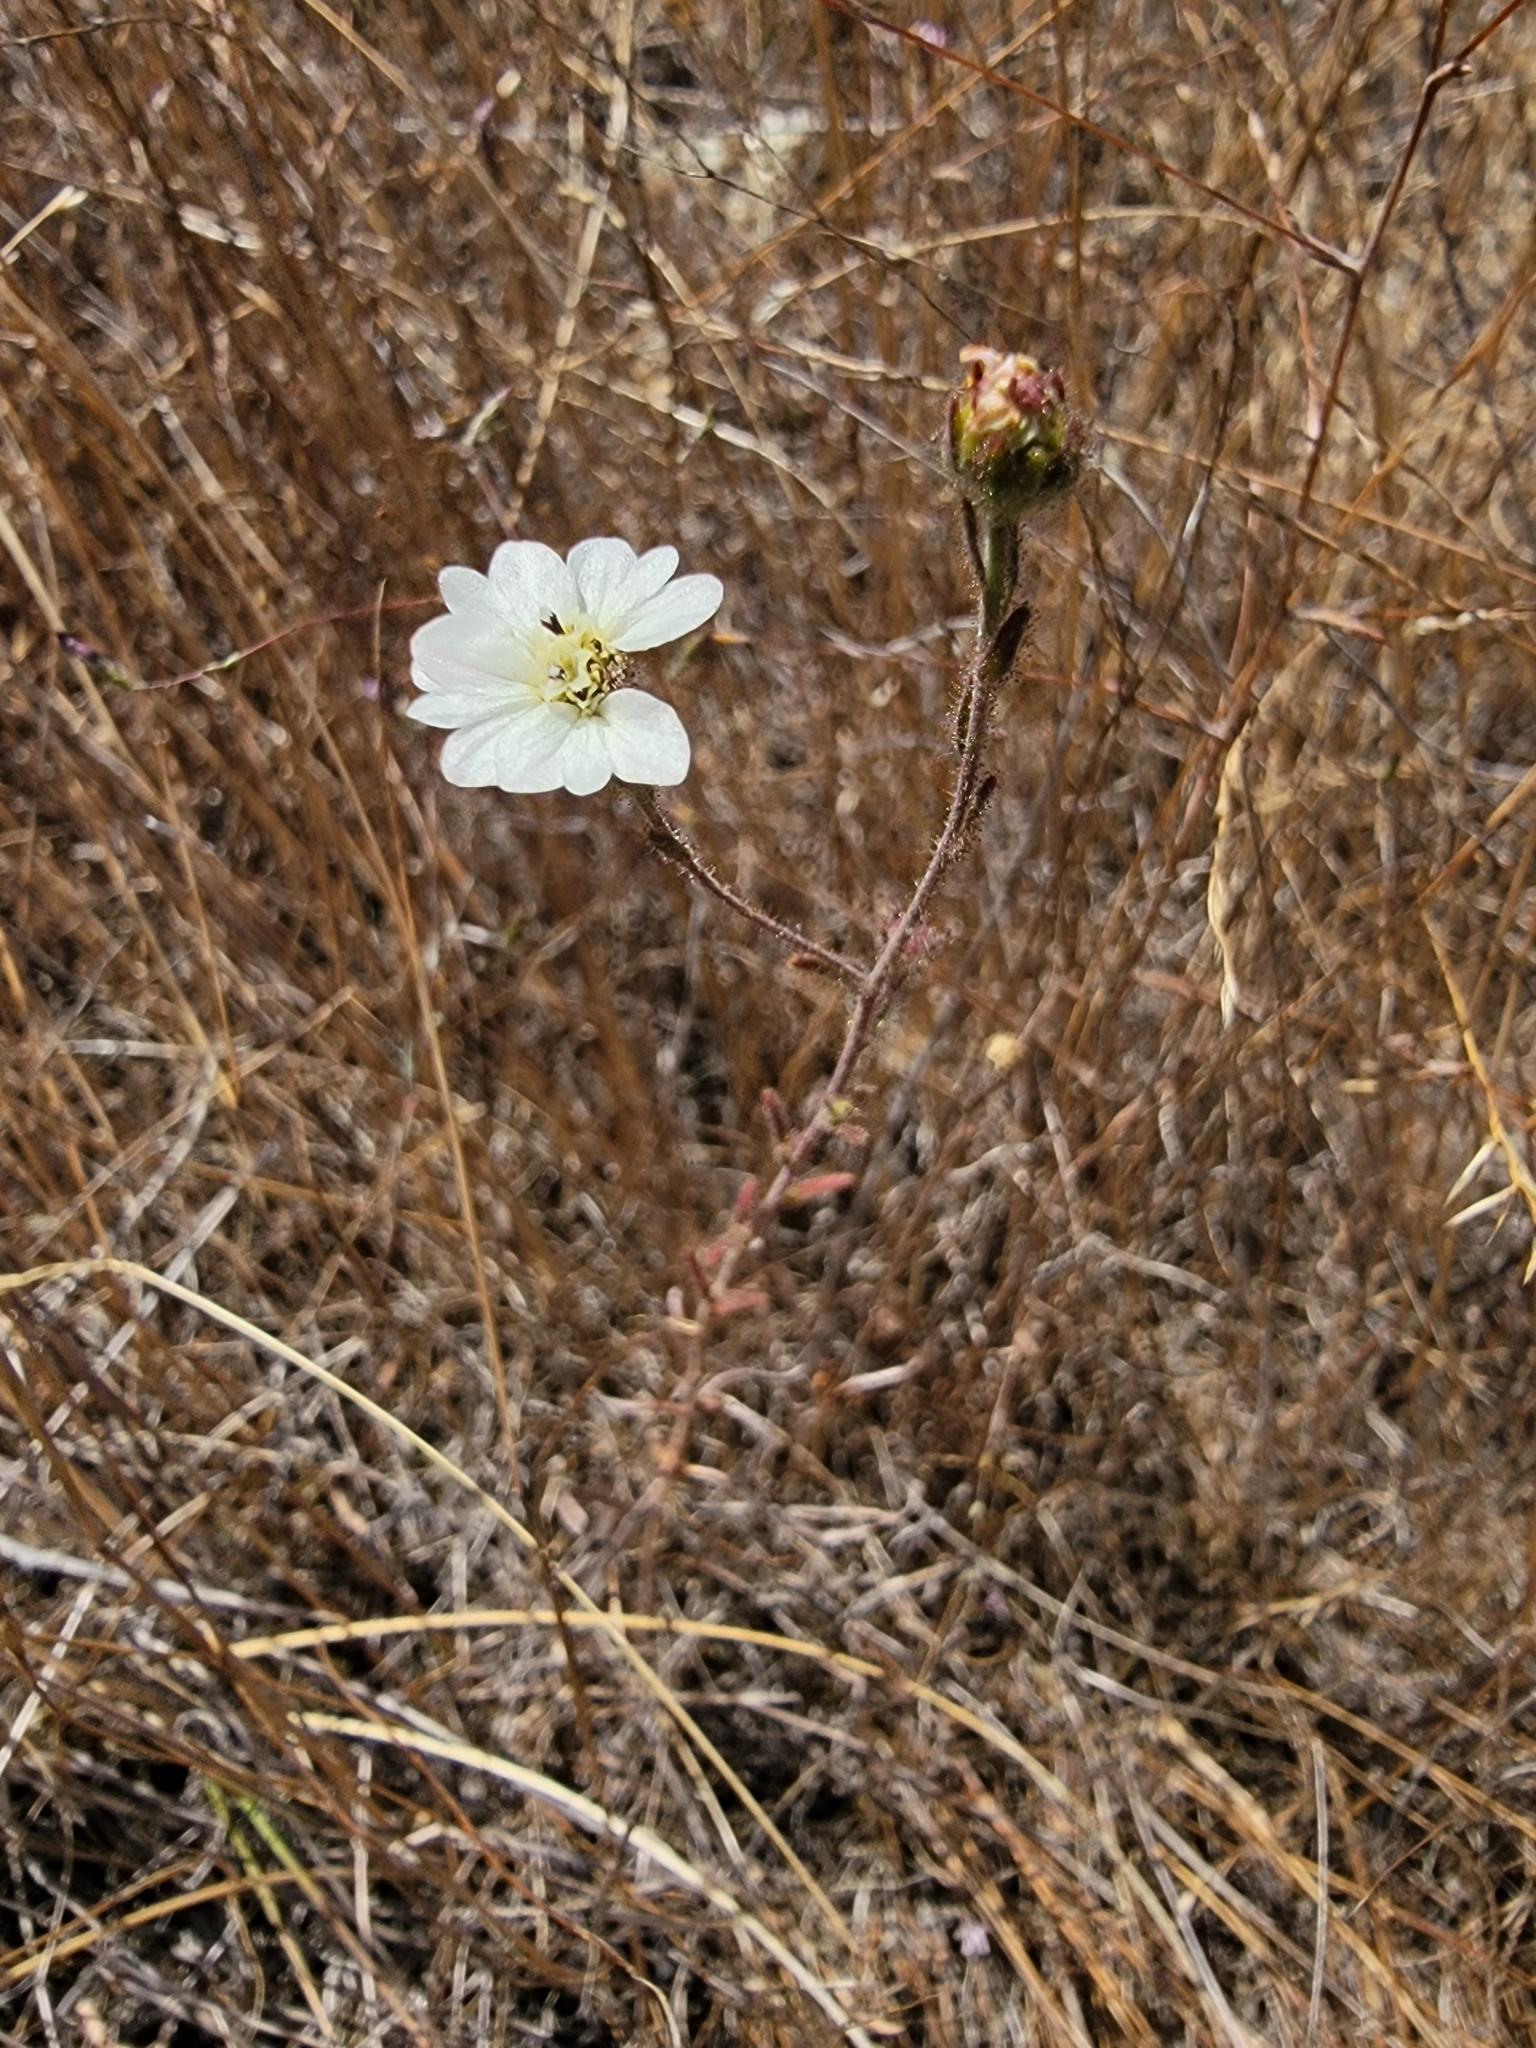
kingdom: Plantae
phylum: Tracheophyta
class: Magnoliopsida
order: Asterales
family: Asteraceae
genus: Hemizonia
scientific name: Hemizonia congesta
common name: Hayfield tarweed
